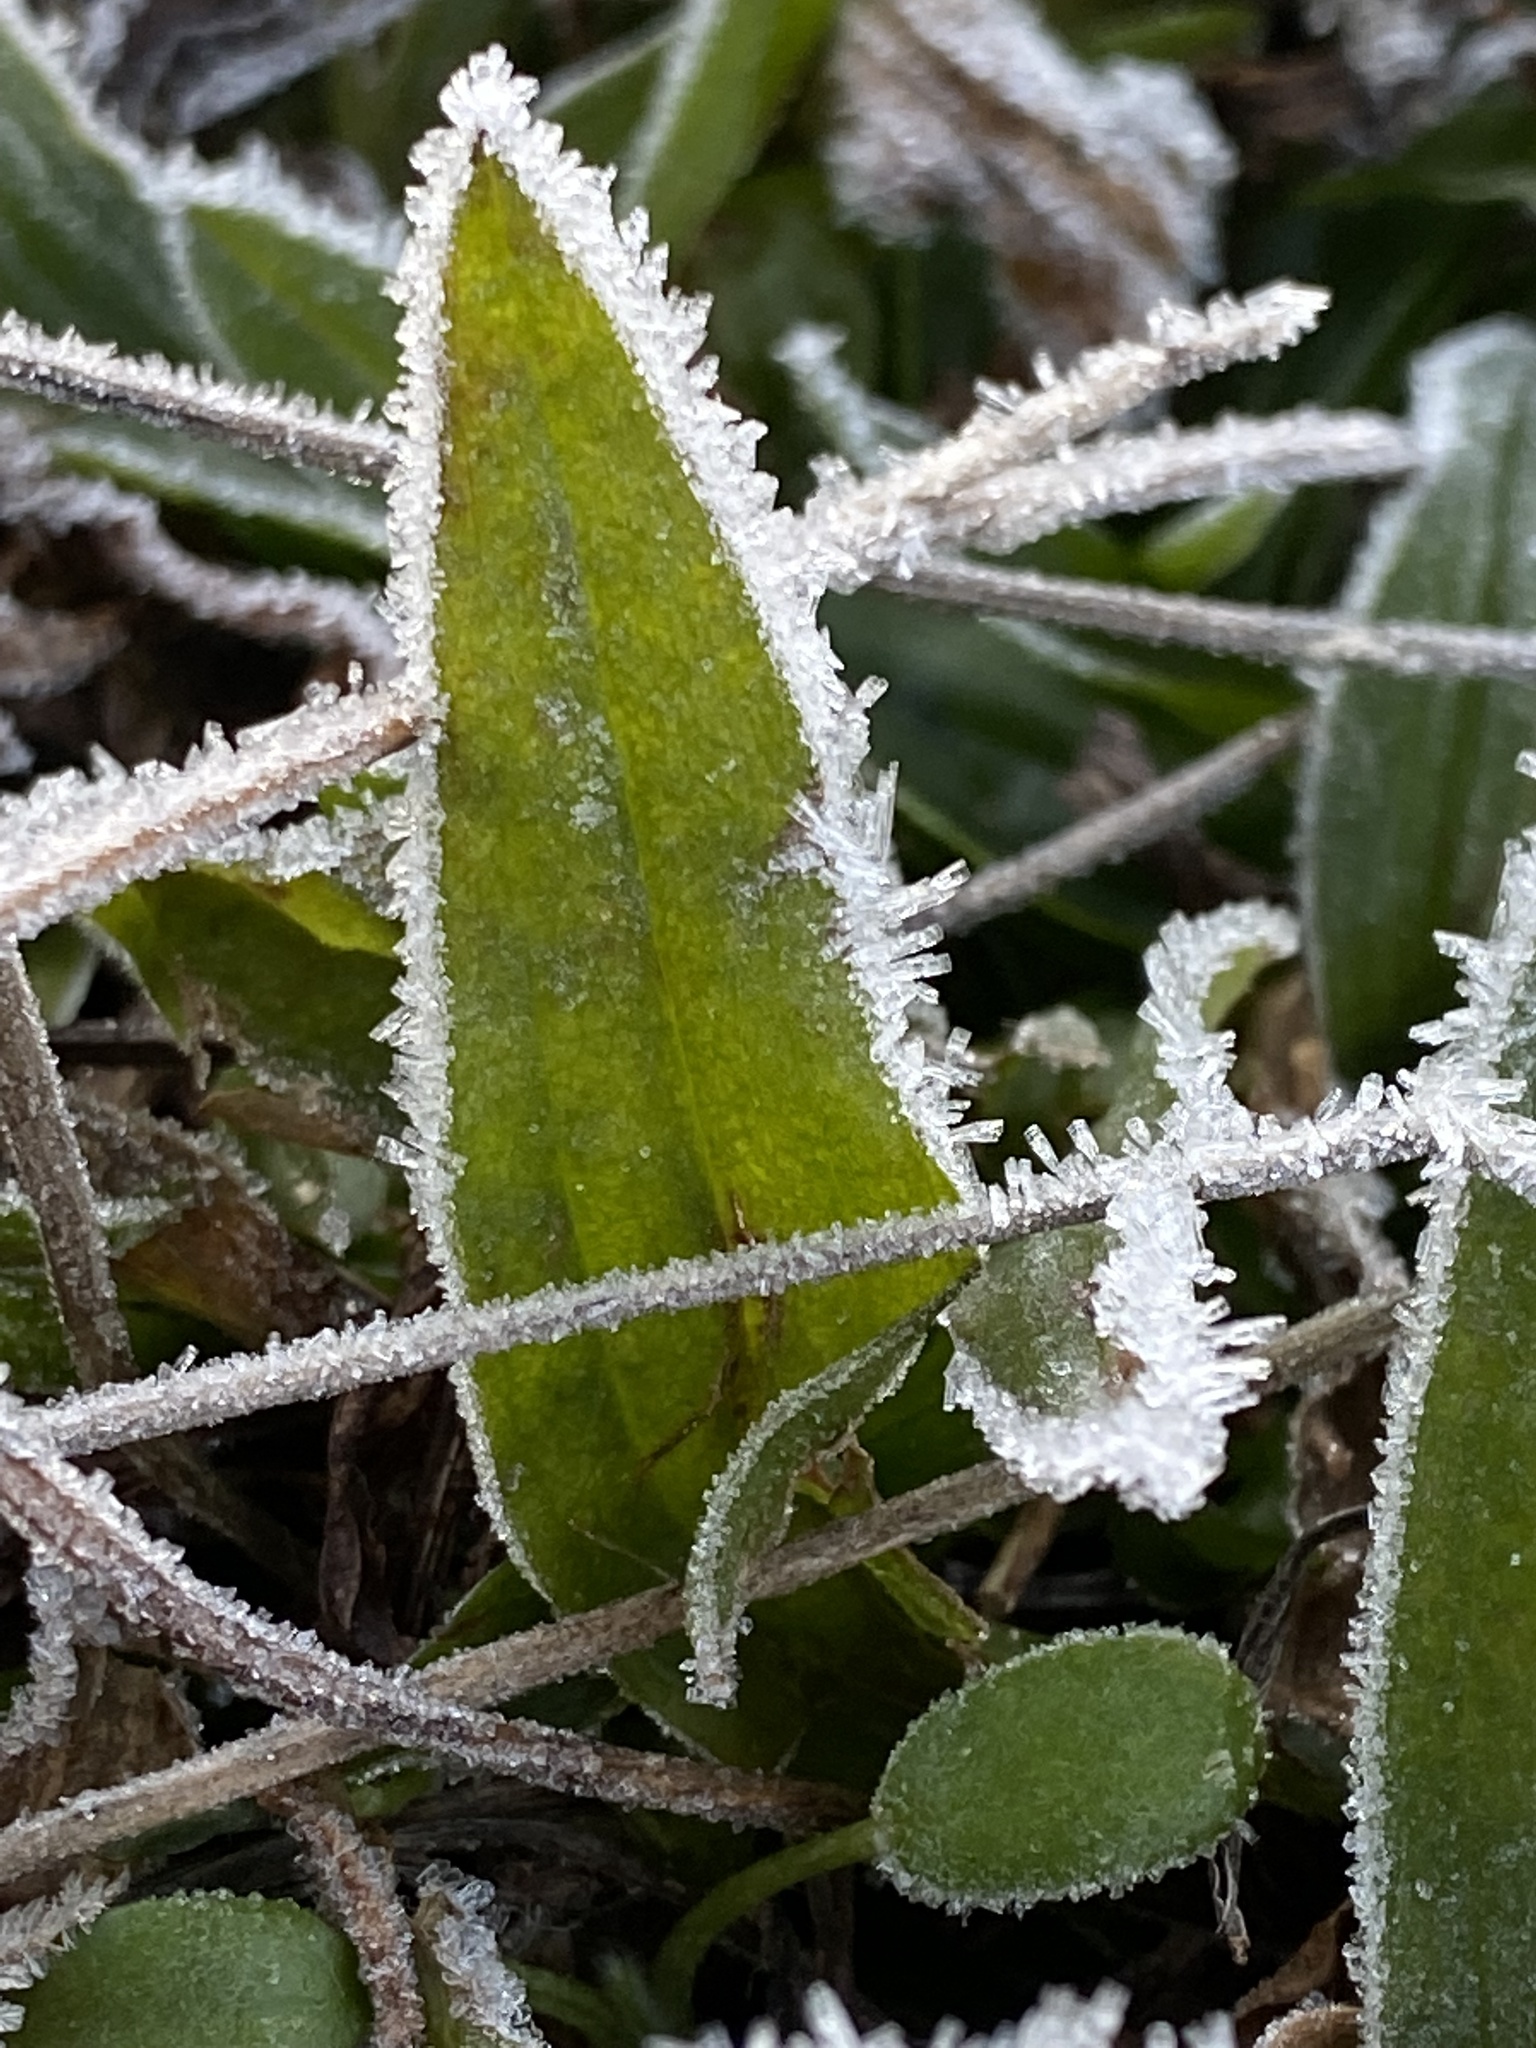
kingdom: Plantae
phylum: Tracheophyta
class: Magnoliopsida
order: Lamiales
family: Plantaginaceae
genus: Plantago
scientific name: Plantago lanceolata
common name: Ribwort plantain
